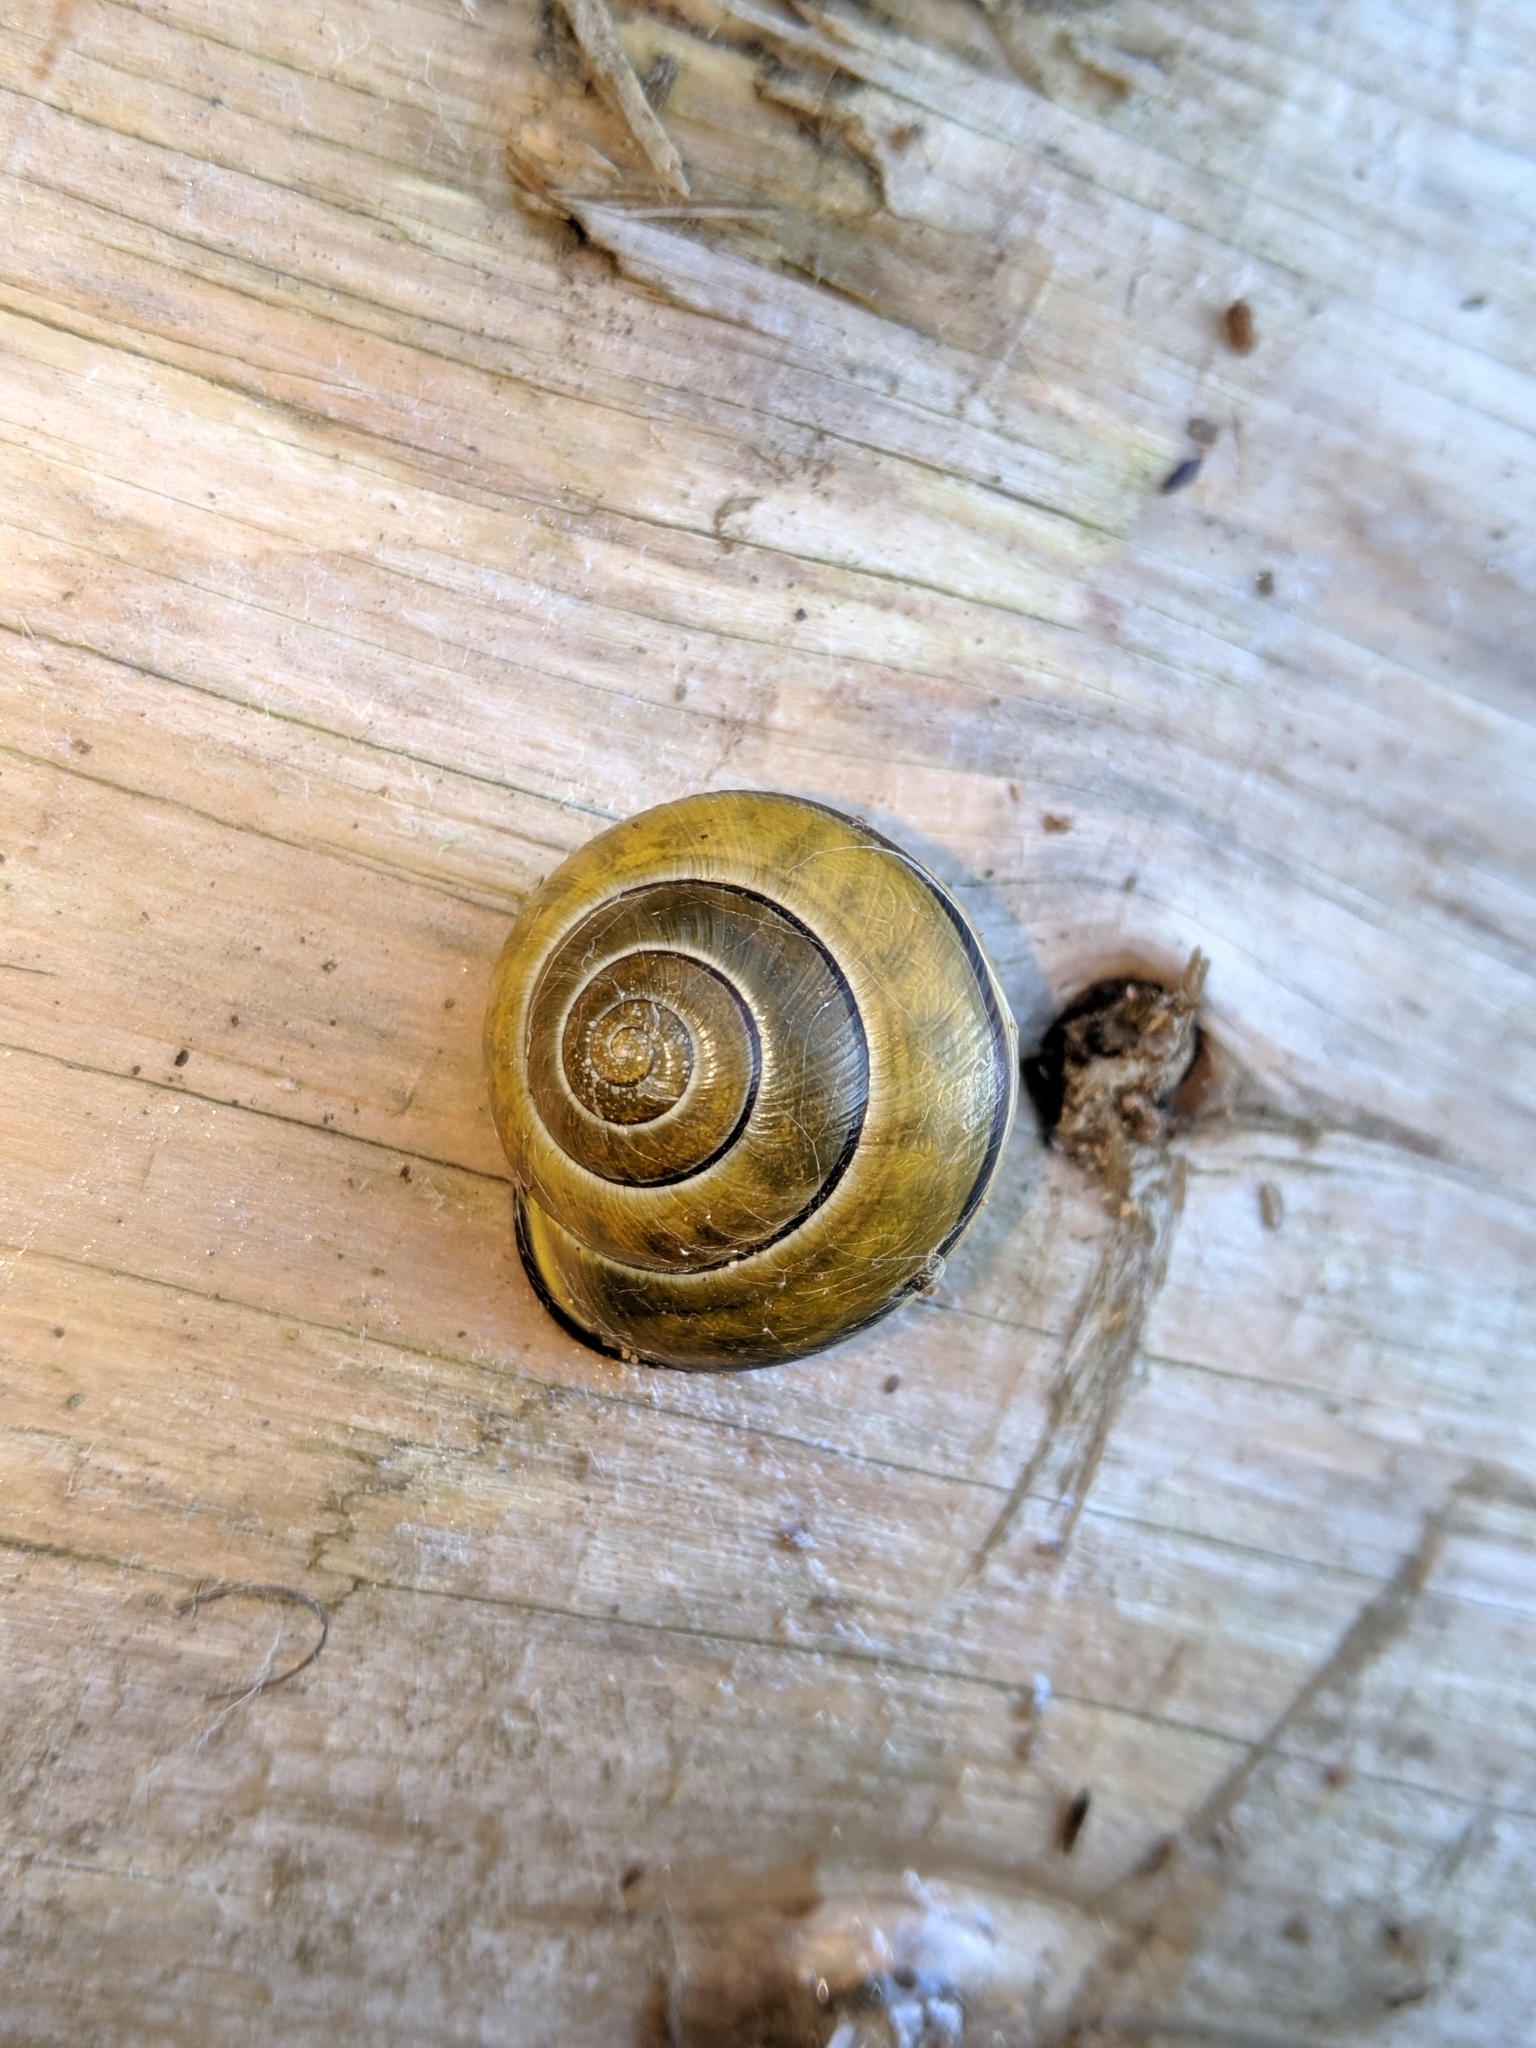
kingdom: Animalia
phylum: Mollusca
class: Gastropoda
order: Stylommatophora
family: Helicidae
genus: Cepaea
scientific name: Cepaea nemoralis
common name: Grovesnail
